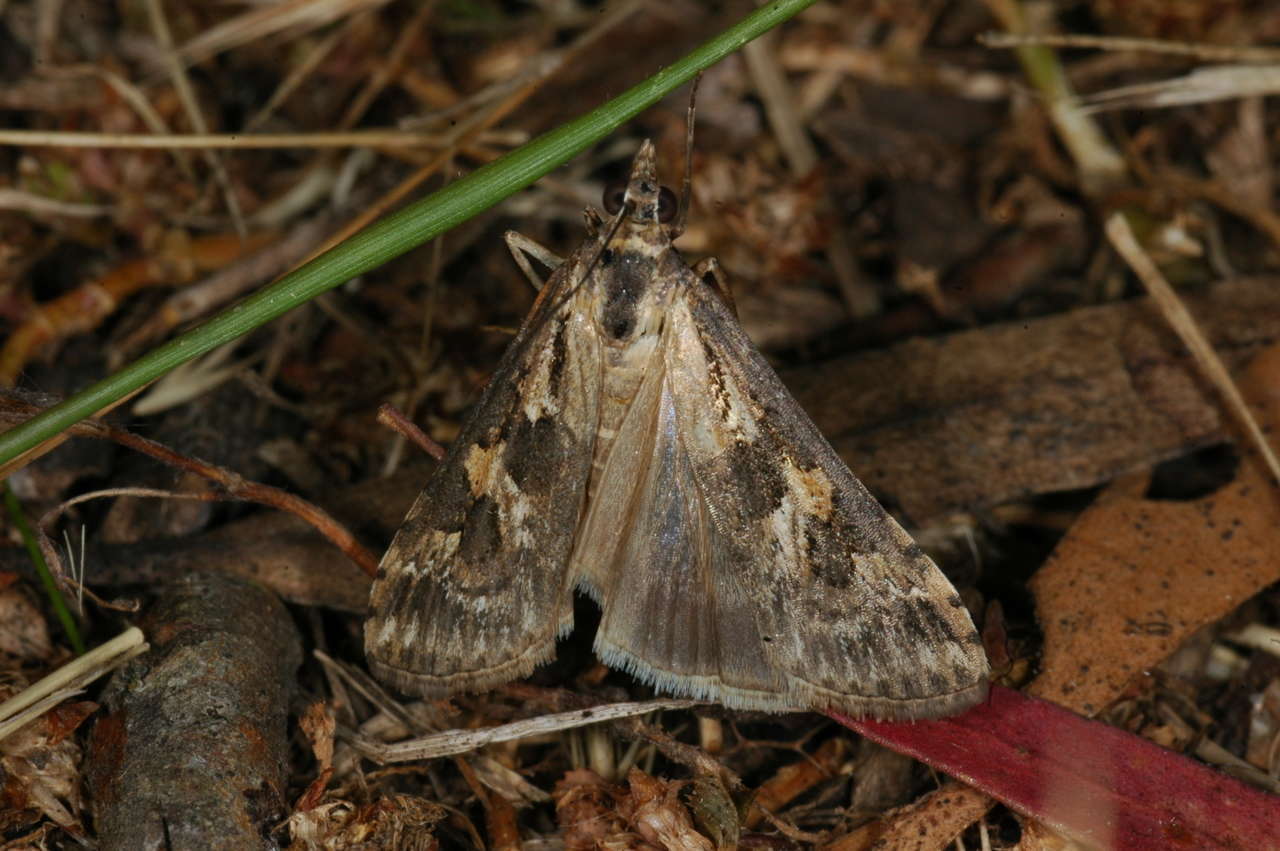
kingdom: Animalia
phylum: Arthropoda
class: Insecta
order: Lepidoptera
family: Crambidae
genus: Nomophila
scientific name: Nomophila corticalis
